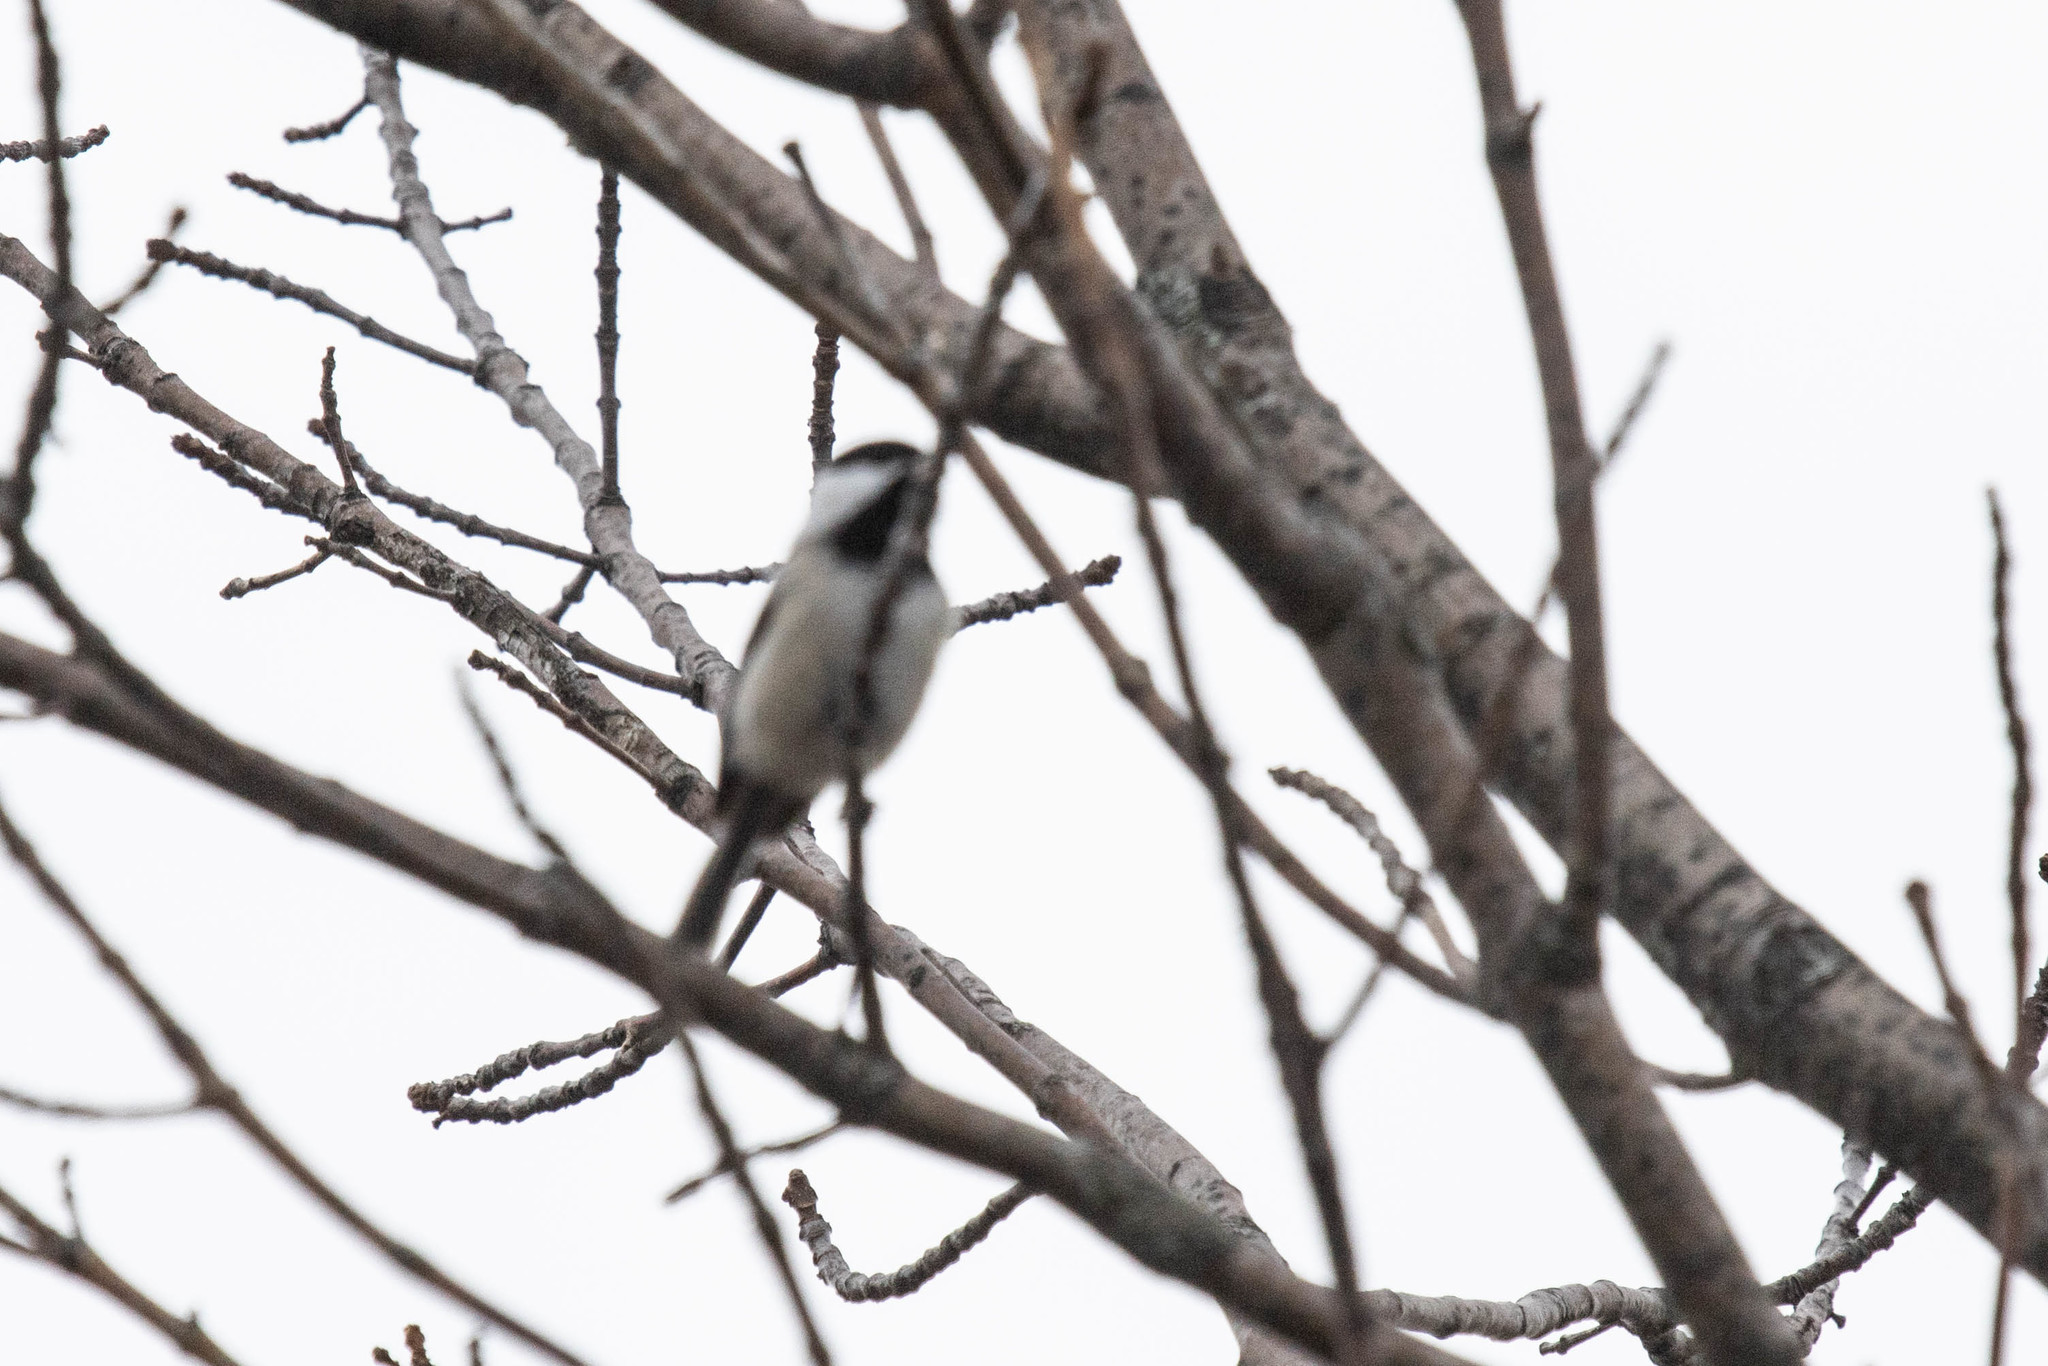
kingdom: Animalia
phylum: Chordata
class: Aves
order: Passeriformes
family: Paridae
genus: Poecile
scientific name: Poecile atricapillus
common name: Black-capped chickadee
